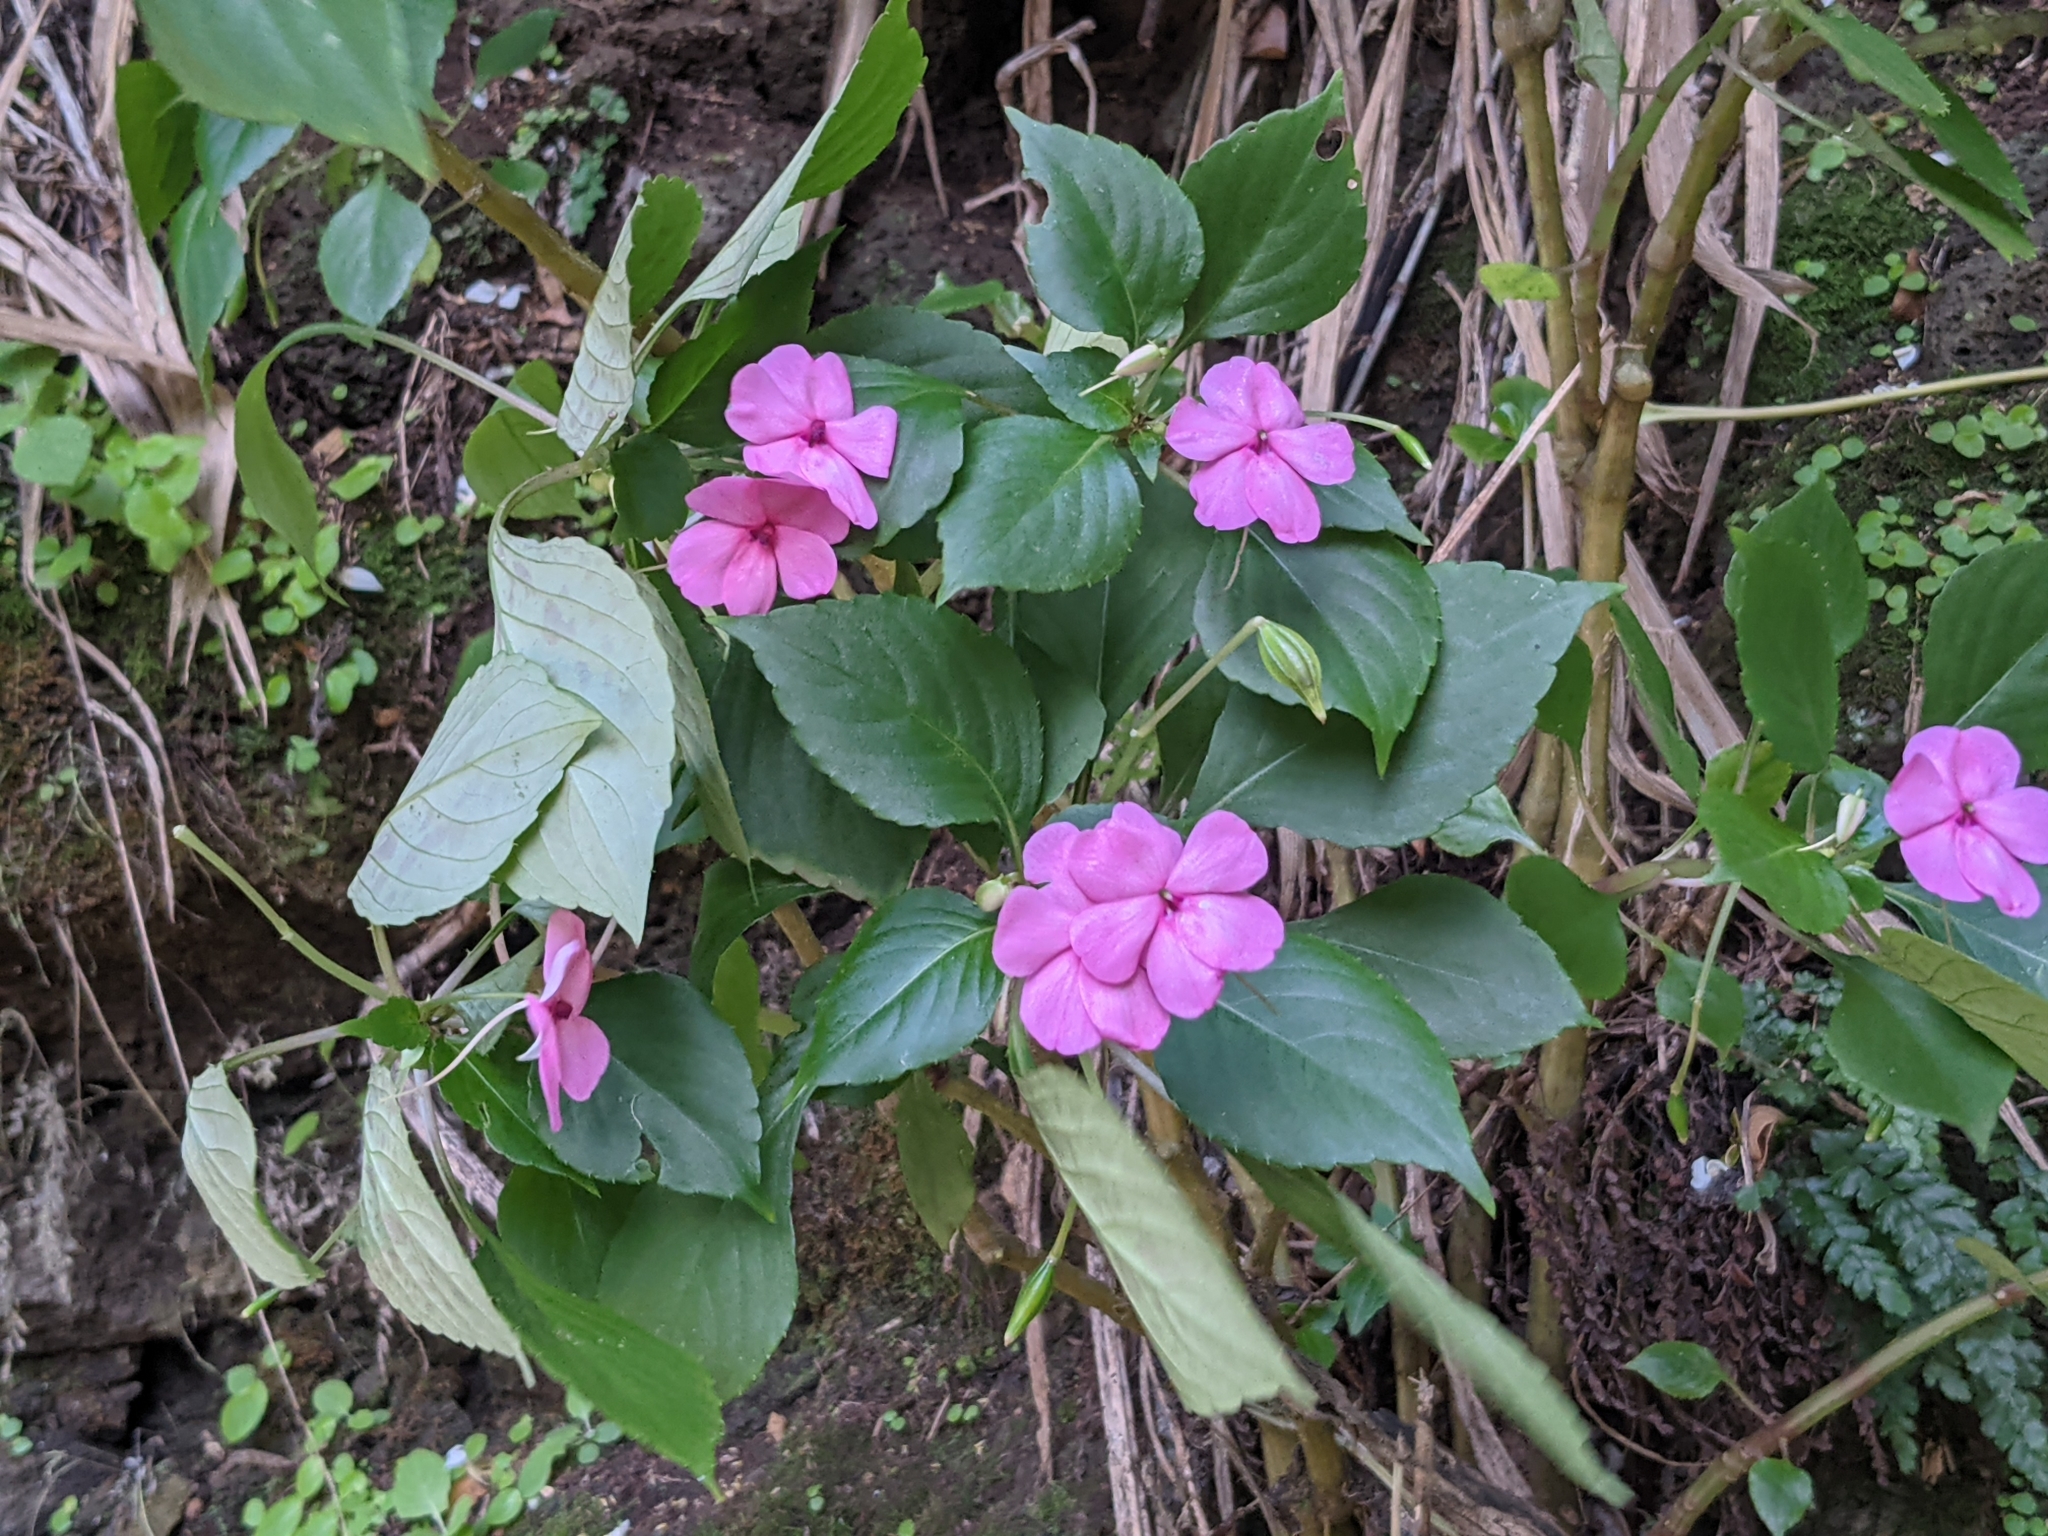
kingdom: Plantae
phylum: Tracheophyta
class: Magnoliopsida
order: Ericales
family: Balsaminaceae
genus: Impatiens
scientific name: Impatiens walleriana
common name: Buzzy lizzy
